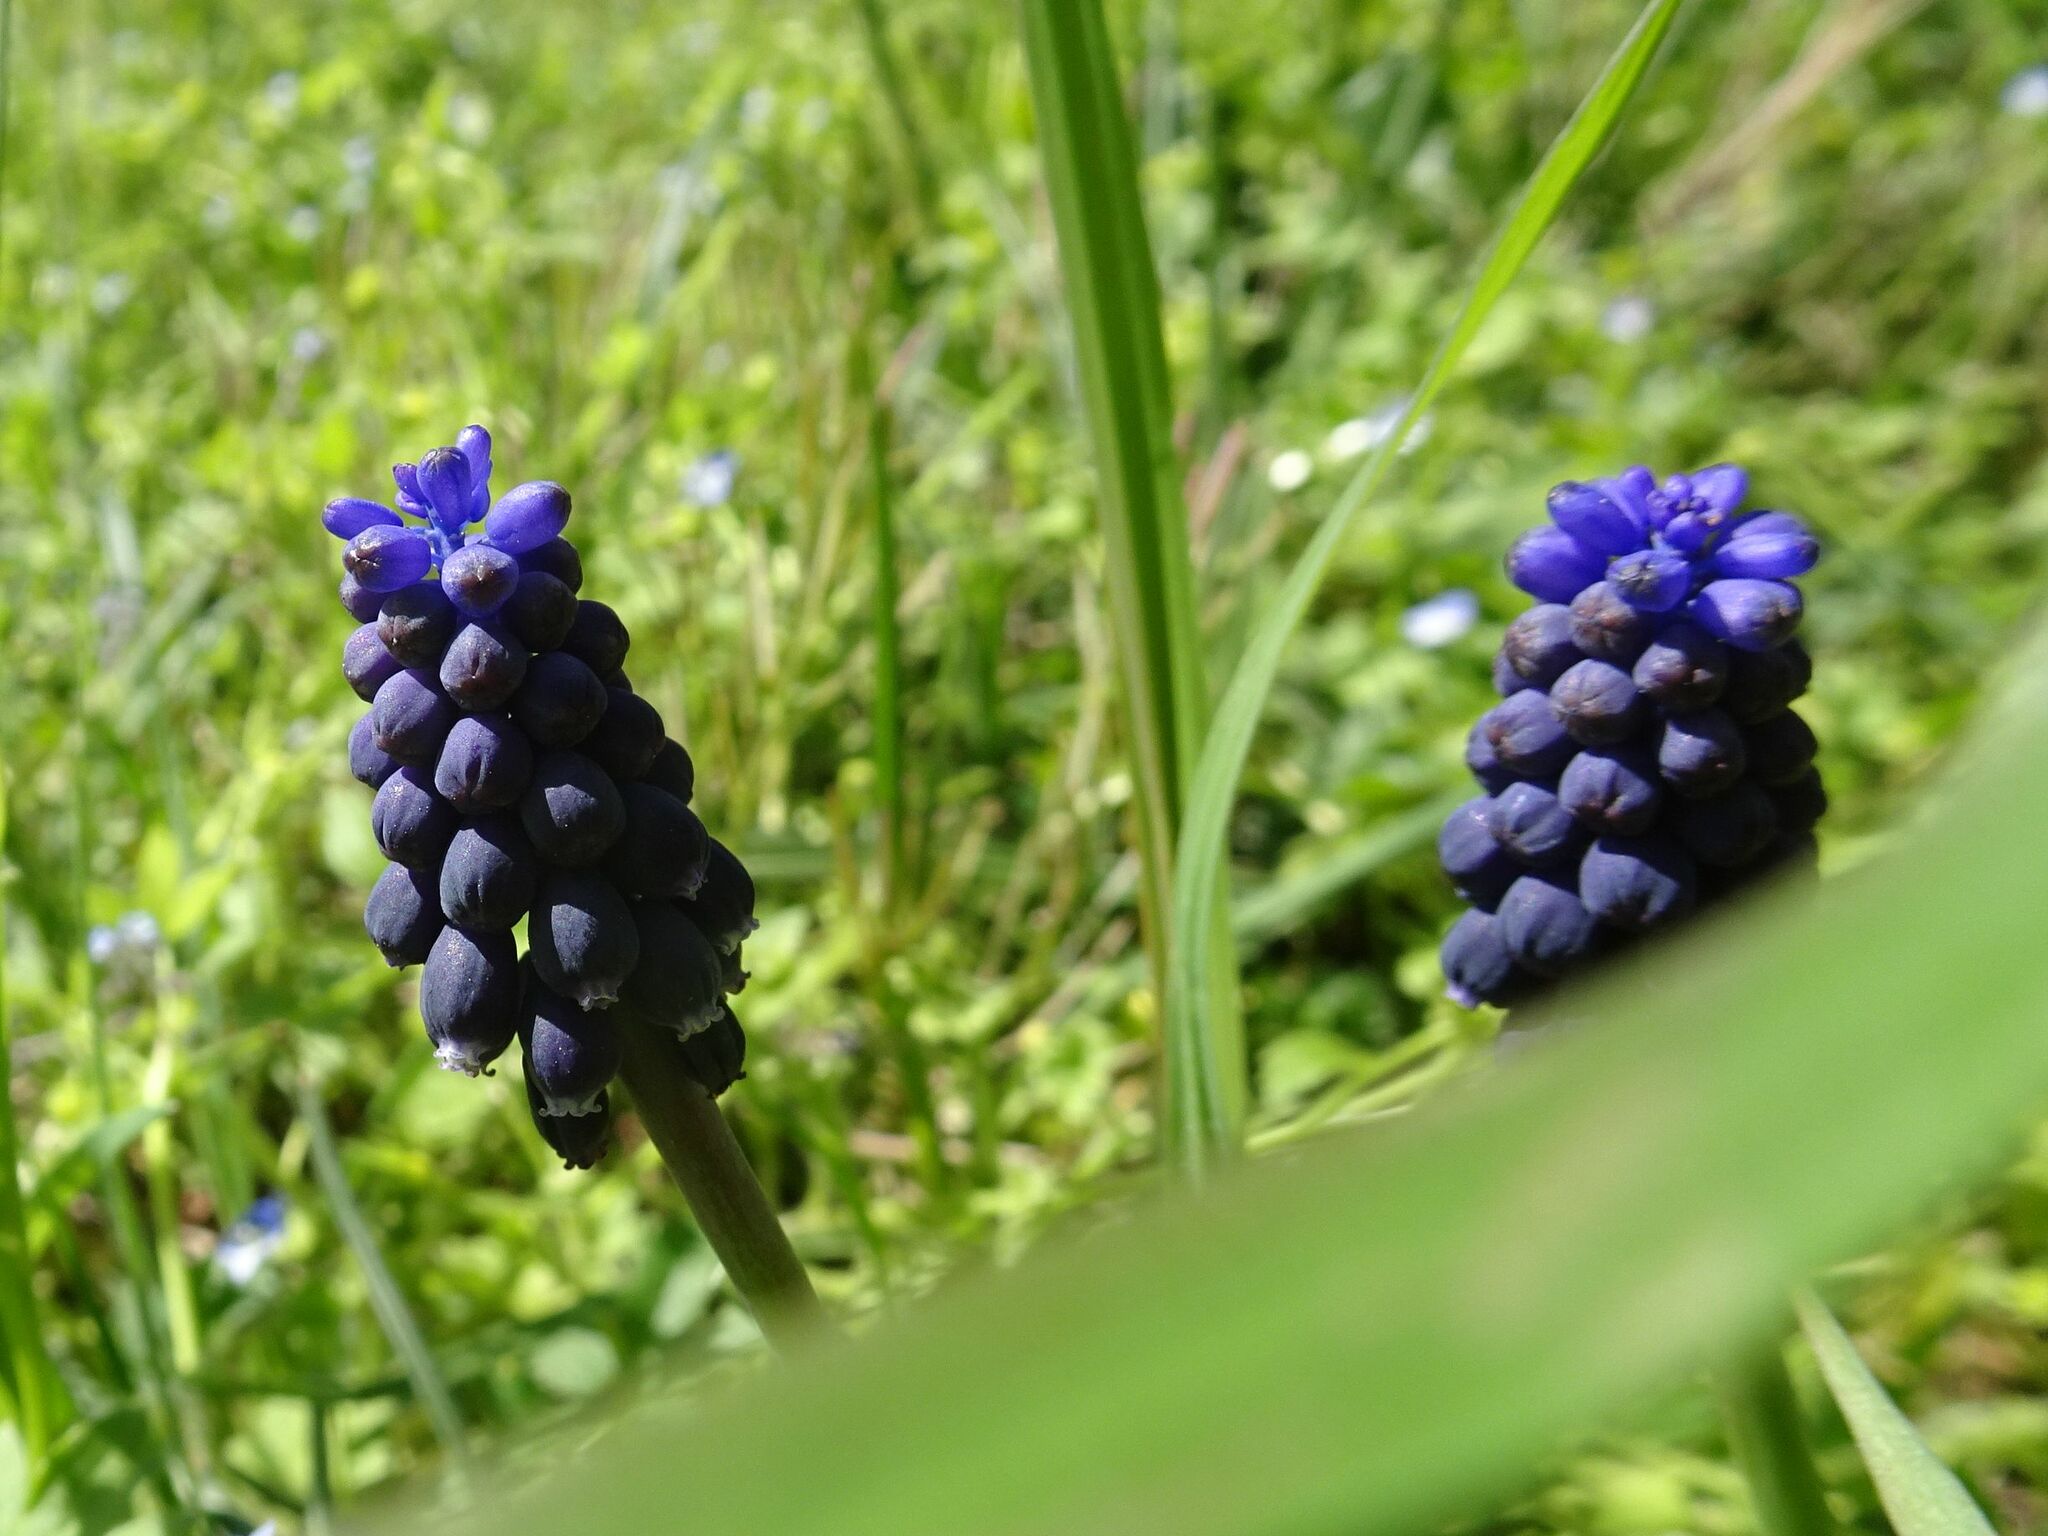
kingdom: Plantae
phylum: Tracheophyta
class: Liliopsida
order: Asparagales
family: Asparagaceae
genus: Muscari
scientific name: Muscari neglectum
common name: Grape-hyacinth
